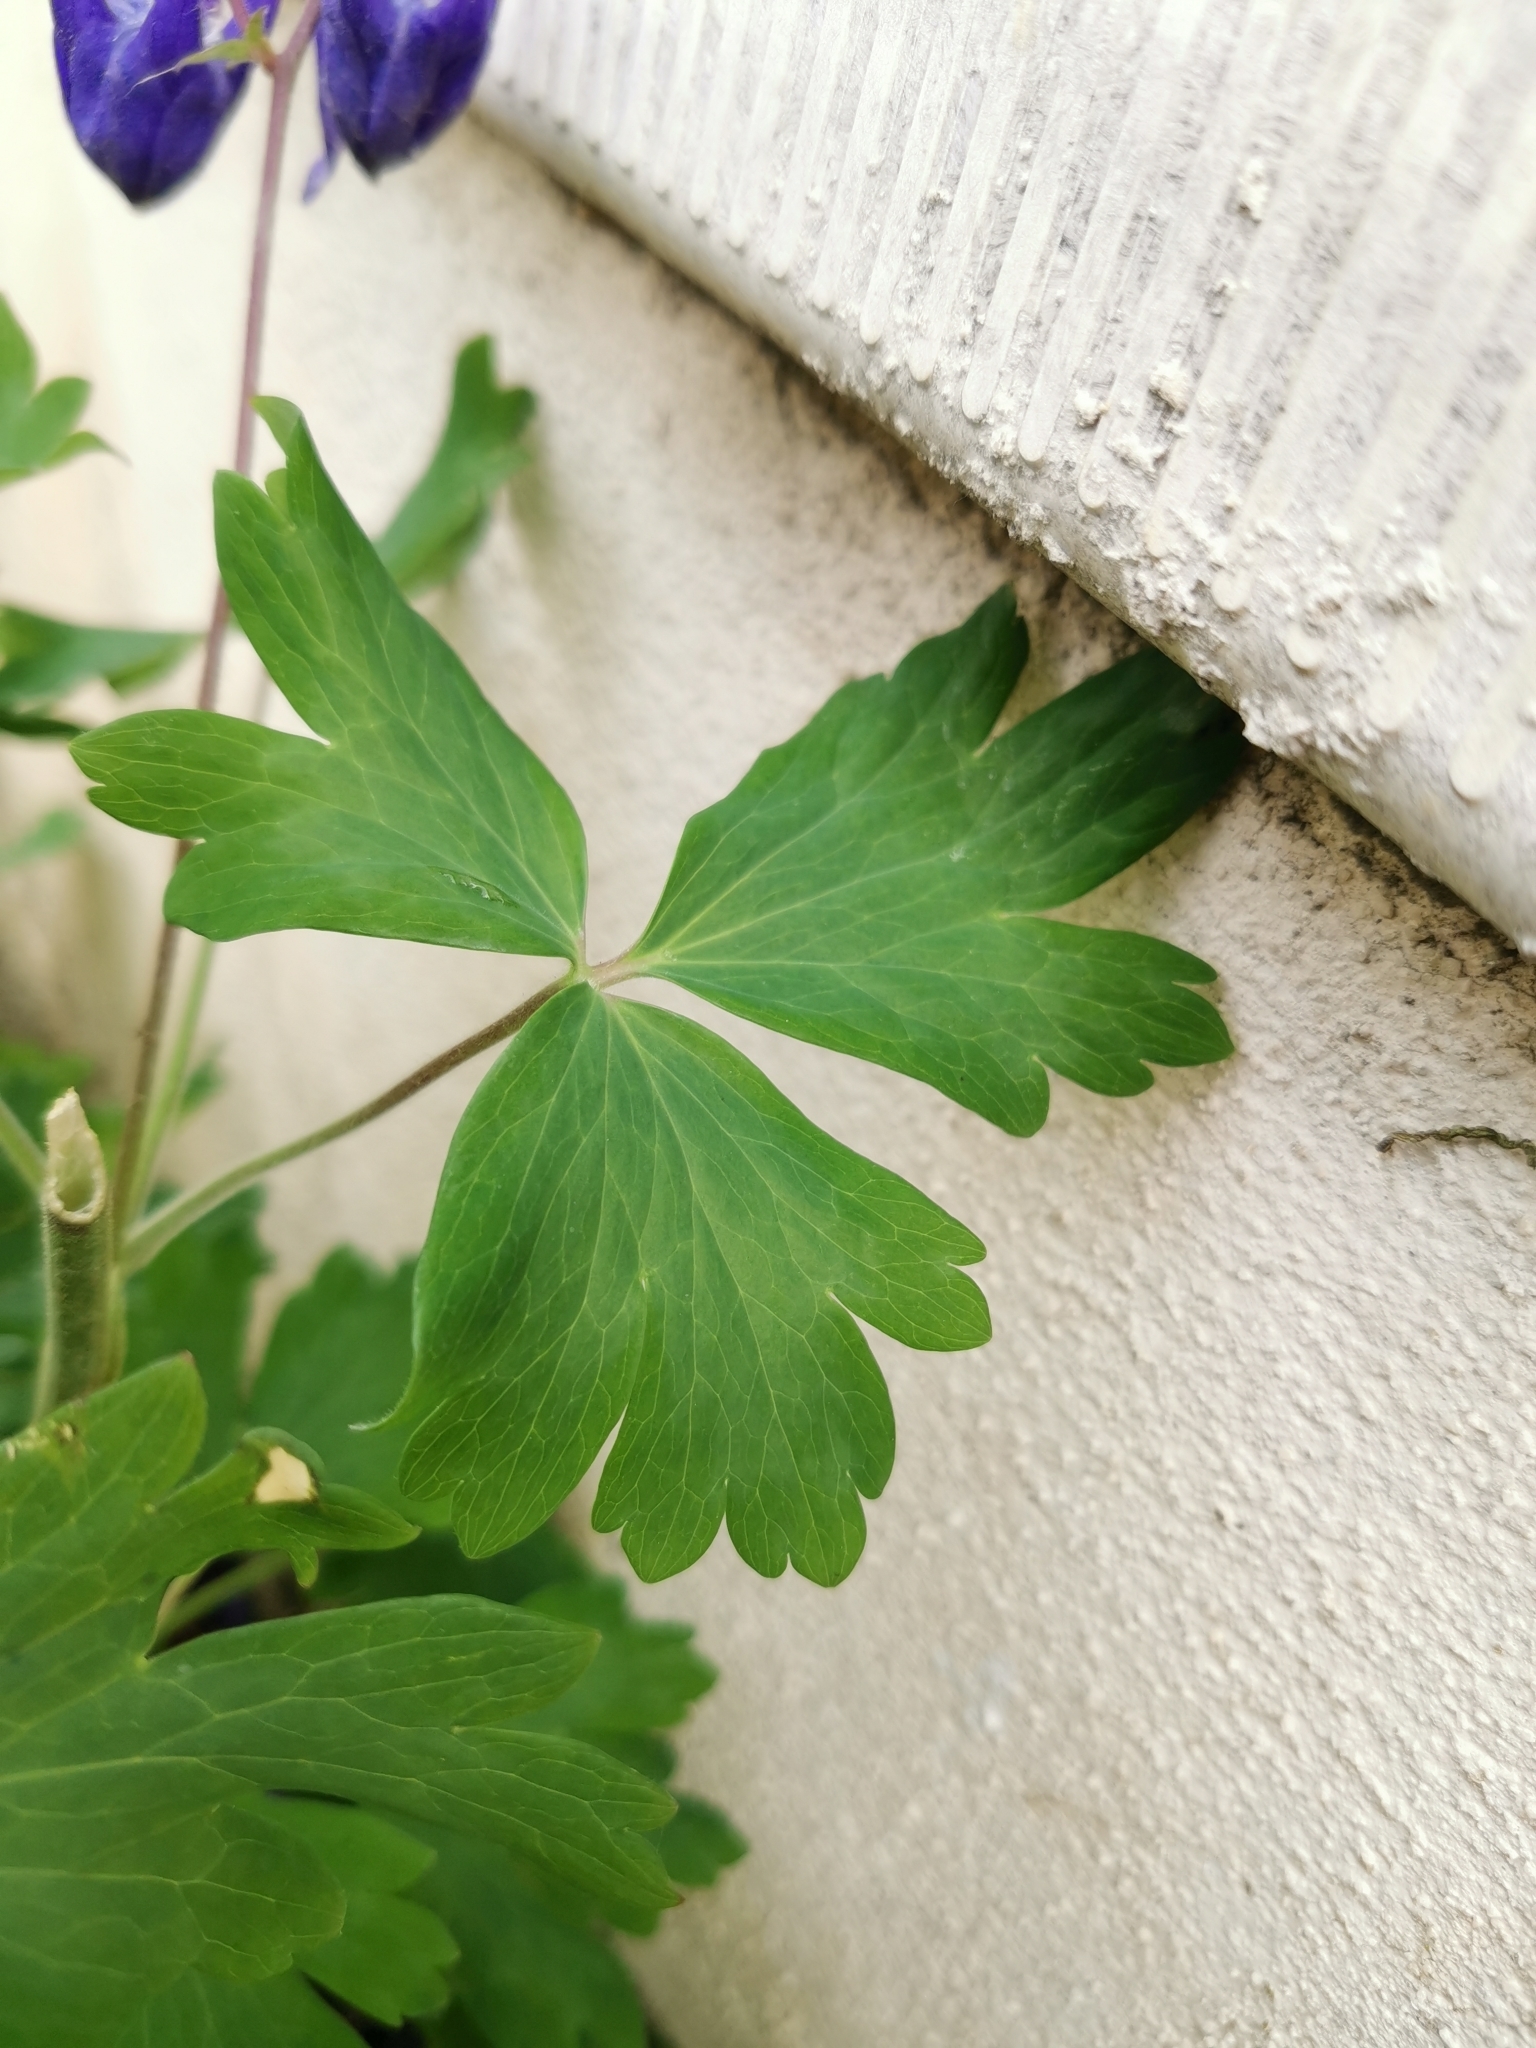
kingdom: Plantae
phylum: Tracheophyta
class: Magnoliopsida
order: Ranunculales
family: Ranunculaceae
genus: Aquilegia
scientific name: Aquilegia vulgaris
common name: Columbine
